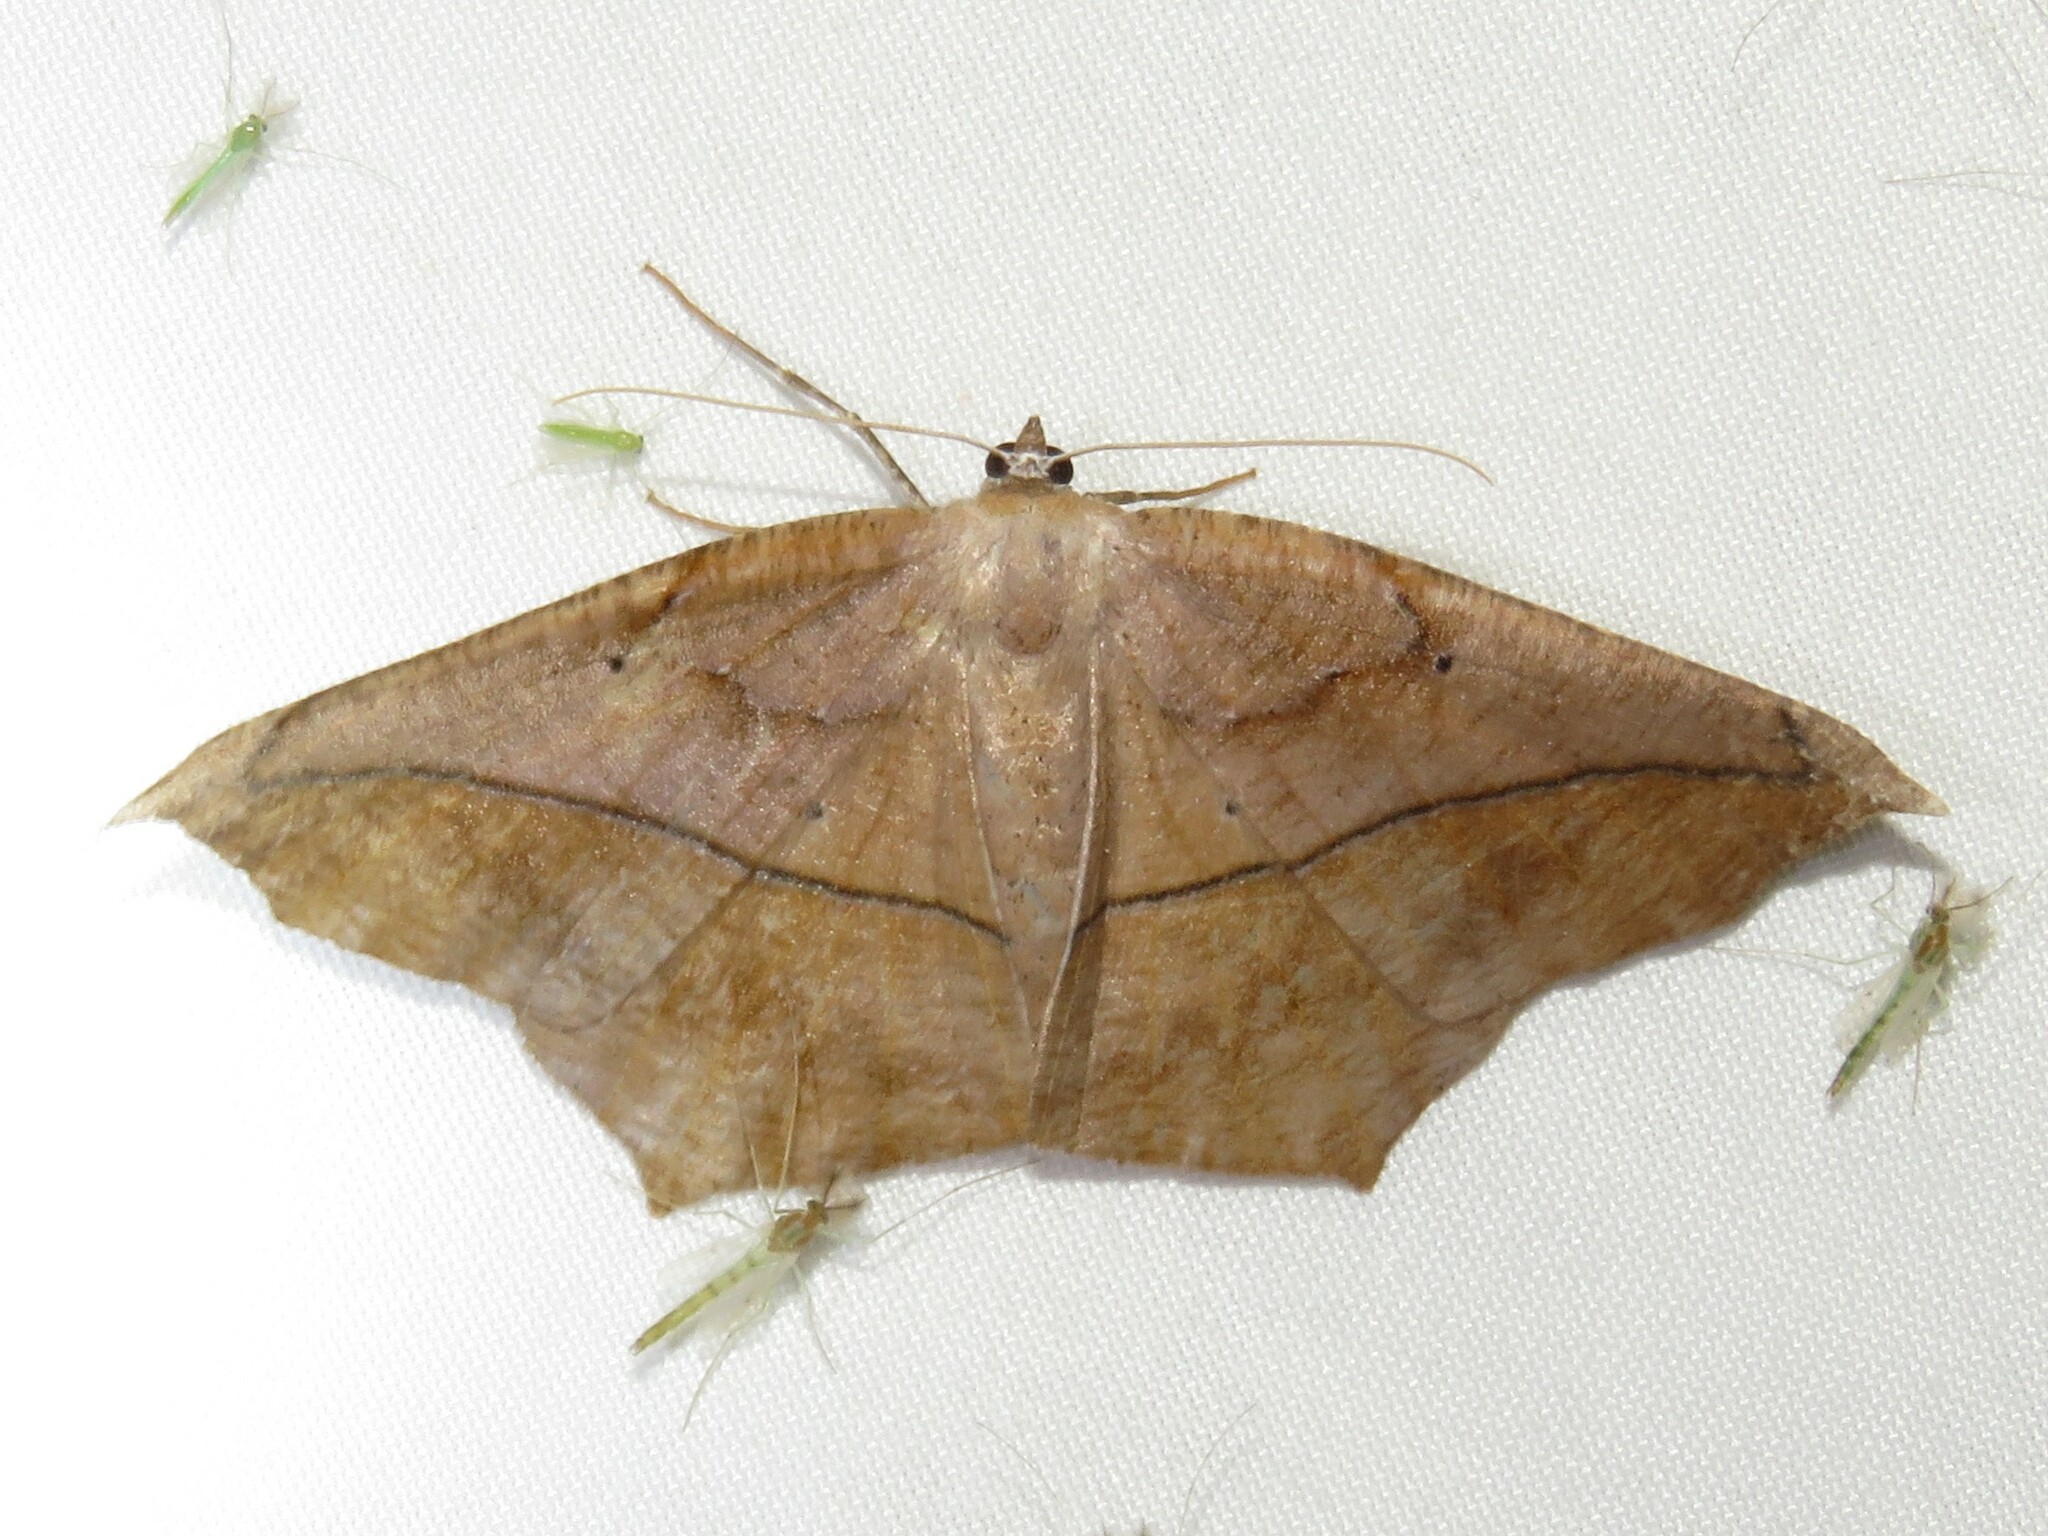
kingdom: Animalia
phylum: Arthropoda
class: Insecta
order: Lepidoptera
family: Geometridae
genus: Prochoerodes
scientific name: Prochoerodes lineola
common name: Large maple spanworm
